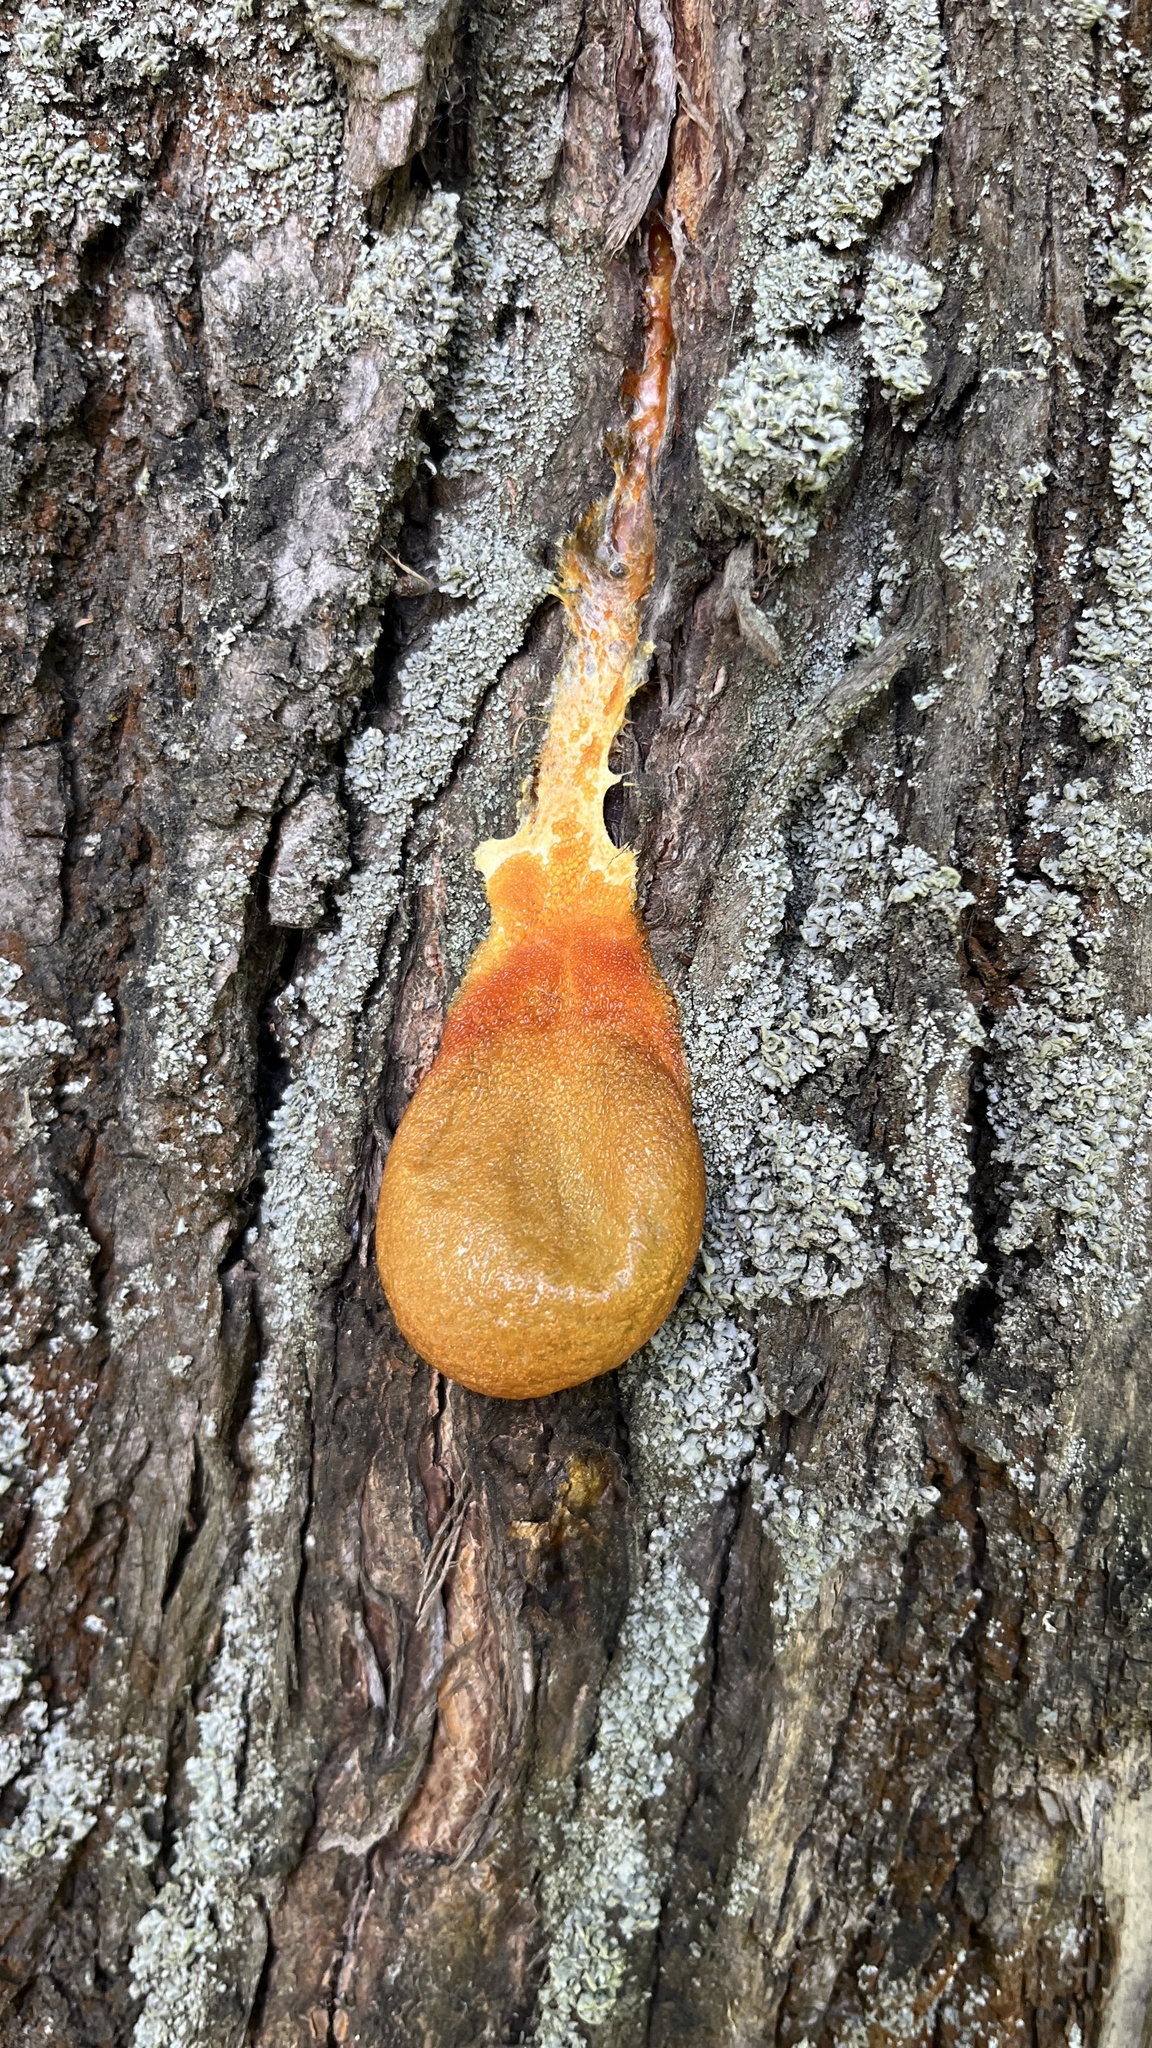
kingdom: Protozoa
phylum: Mycetozoa
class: Myxomycetes
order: Cribrariales
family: Tubiferaceae
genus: Lycogala
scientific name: Lycogala flavofuscum
